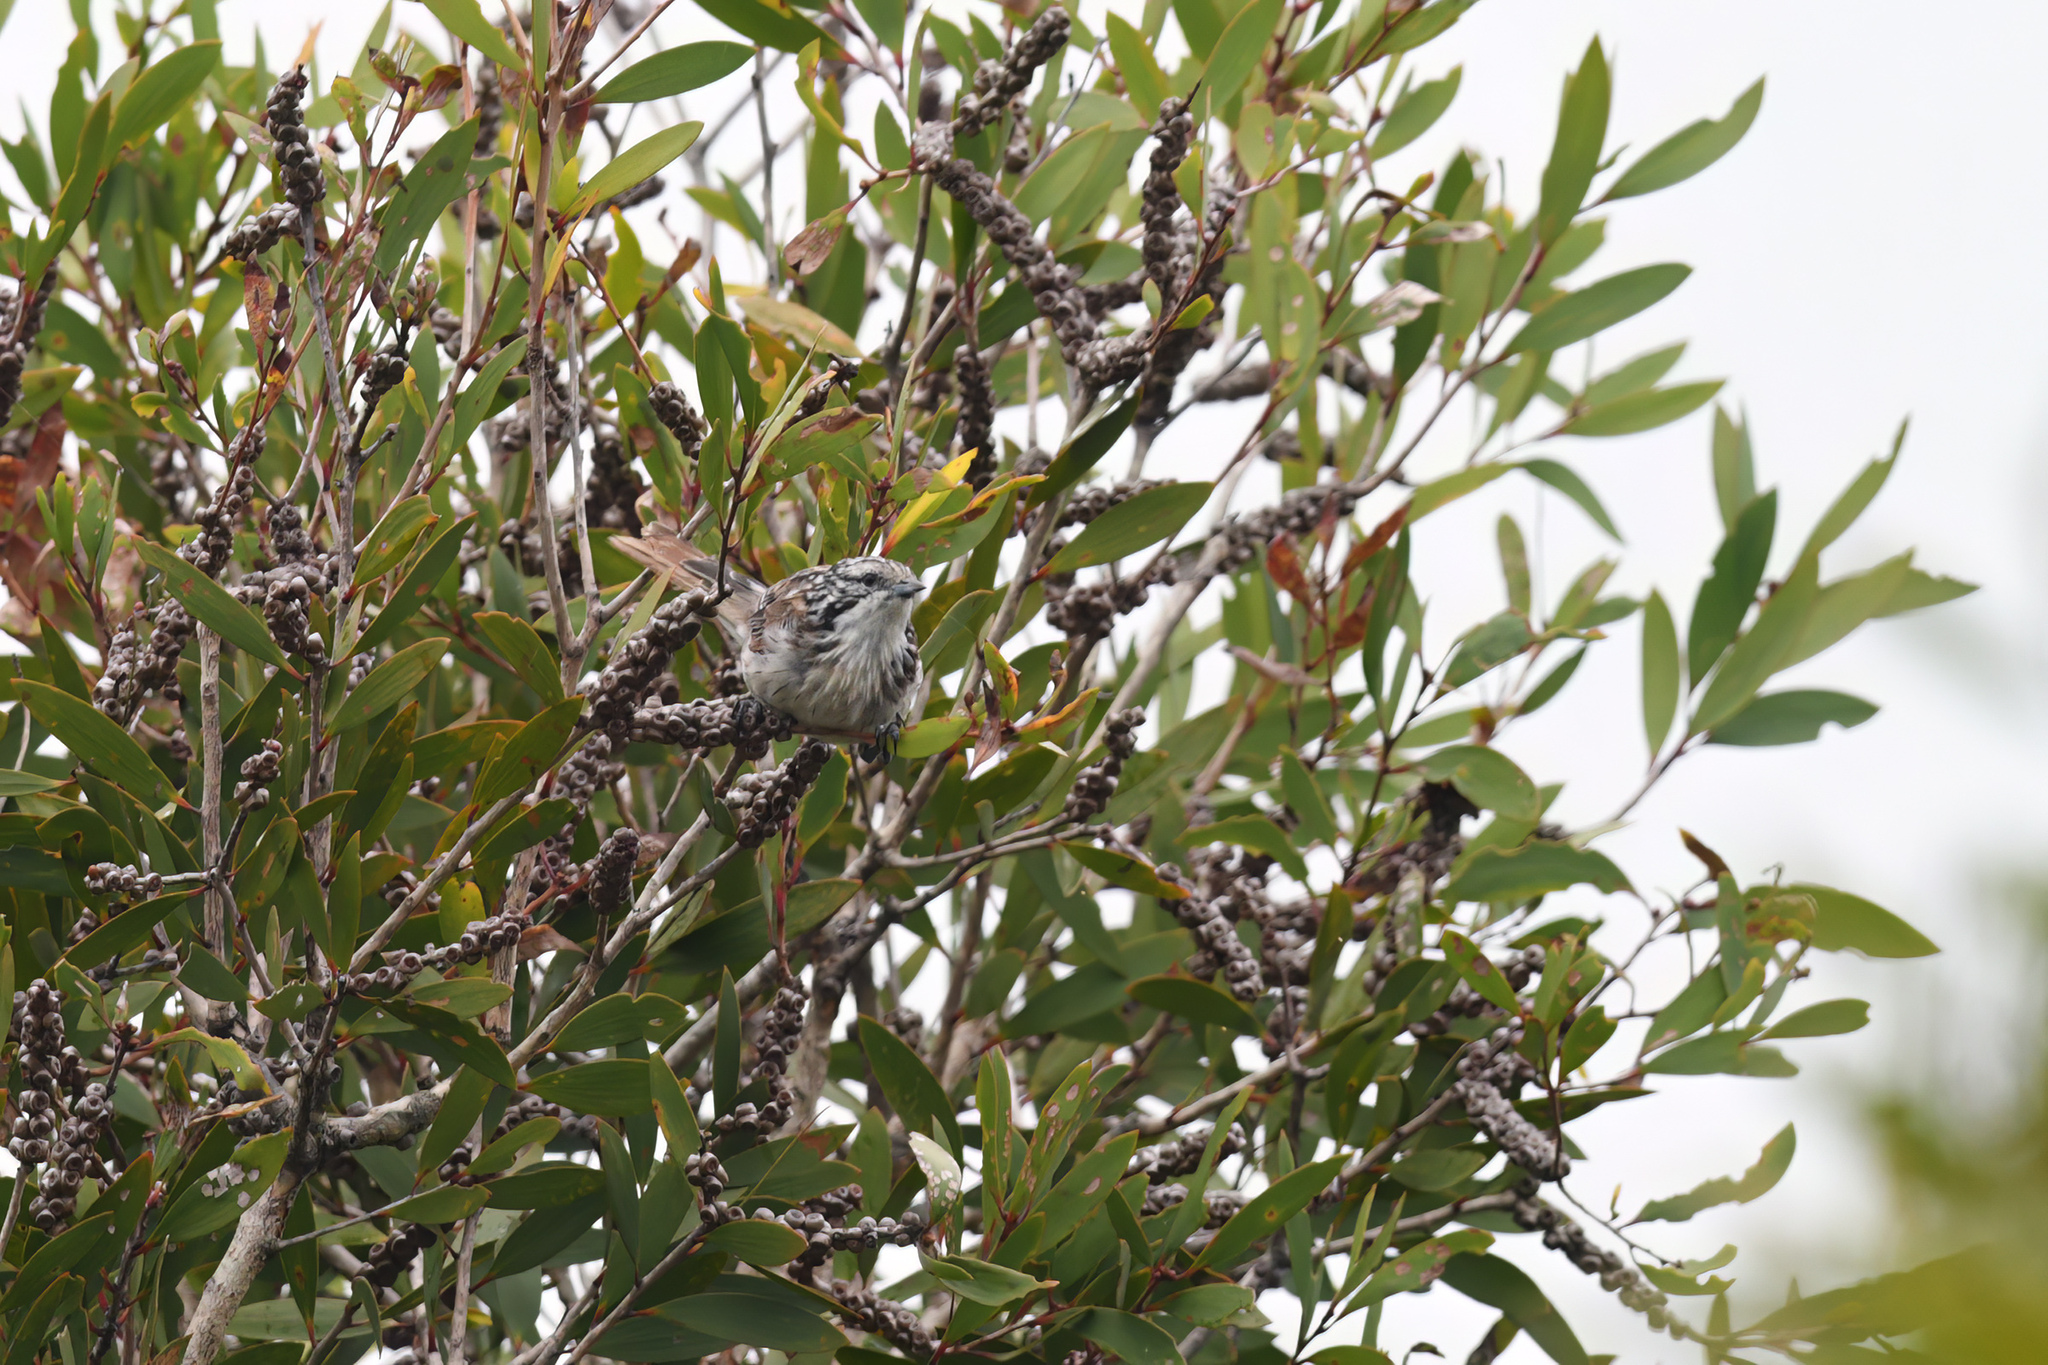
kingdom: Animalia
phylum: Chordata
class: Aves
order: Passeriformes
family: Meliphagidae
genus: Plectorhyncha
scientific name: Plectorhyncha lanceolata
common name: Striped honeyeater
